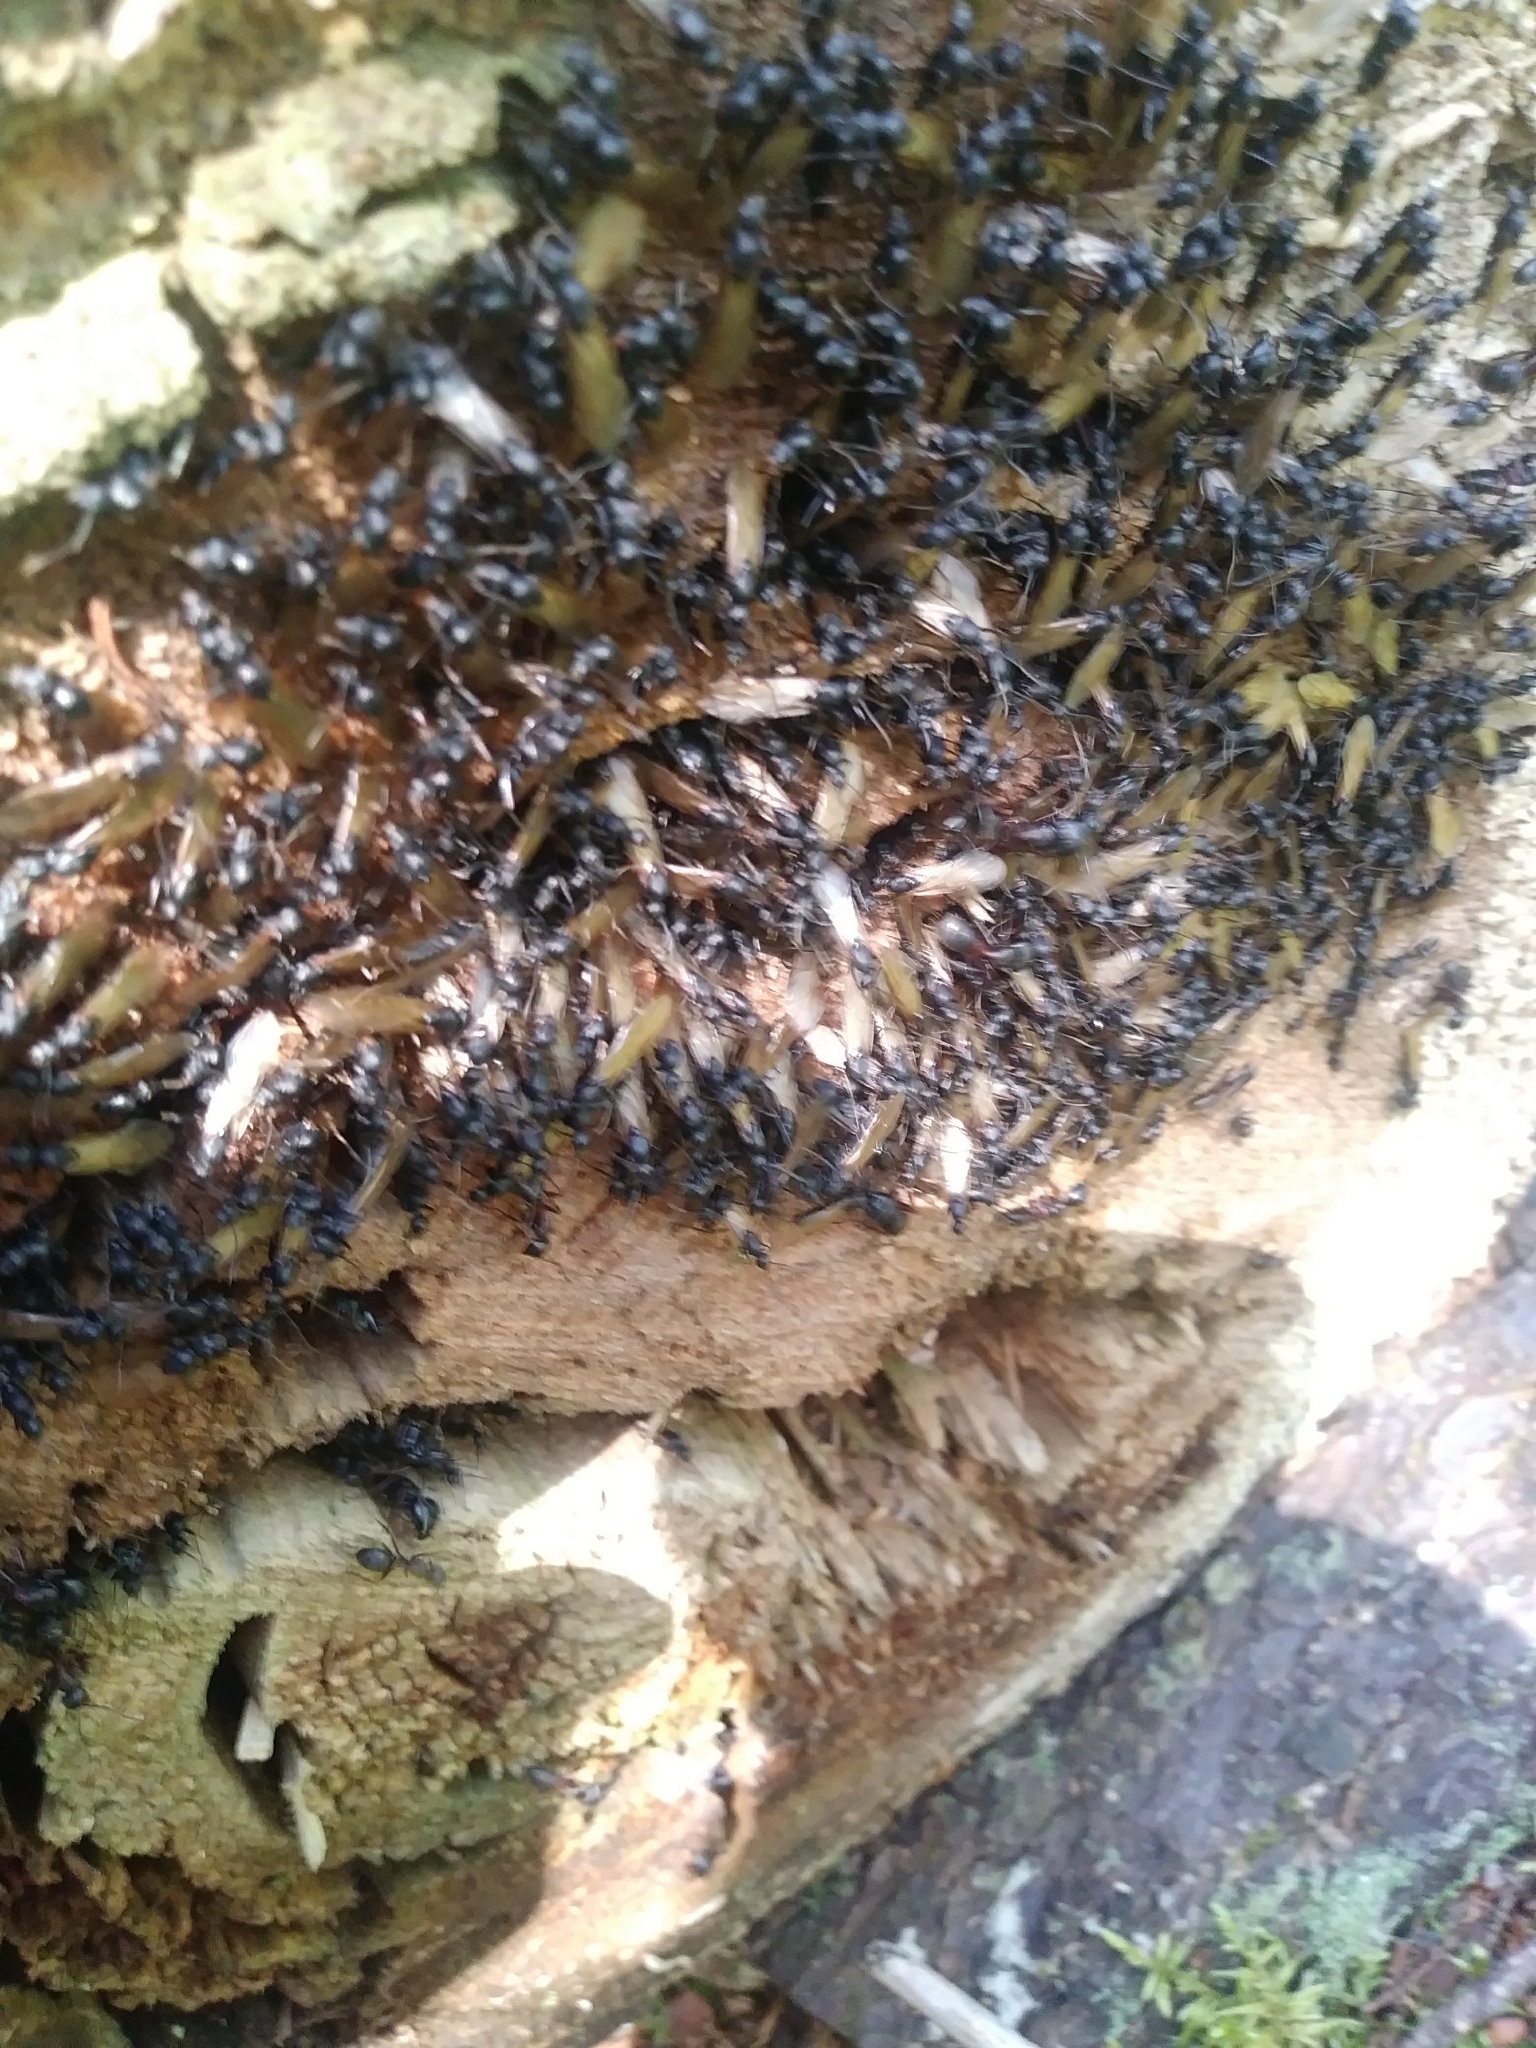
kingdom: Animalia
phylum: Arthropoda
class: Insecta
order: Hymenoptera
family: Formicidae
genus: Camponotus
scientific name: Camponotus
